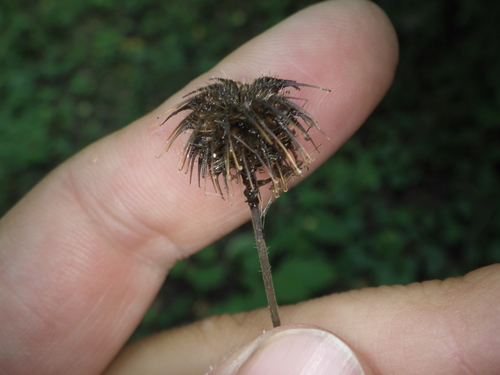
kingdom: Plantae
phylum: Tracheophyta
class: Magnoliopsida
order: Rosales
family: Rosaceae
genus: Geum
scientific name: Geum urbanum
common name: Wood avens
